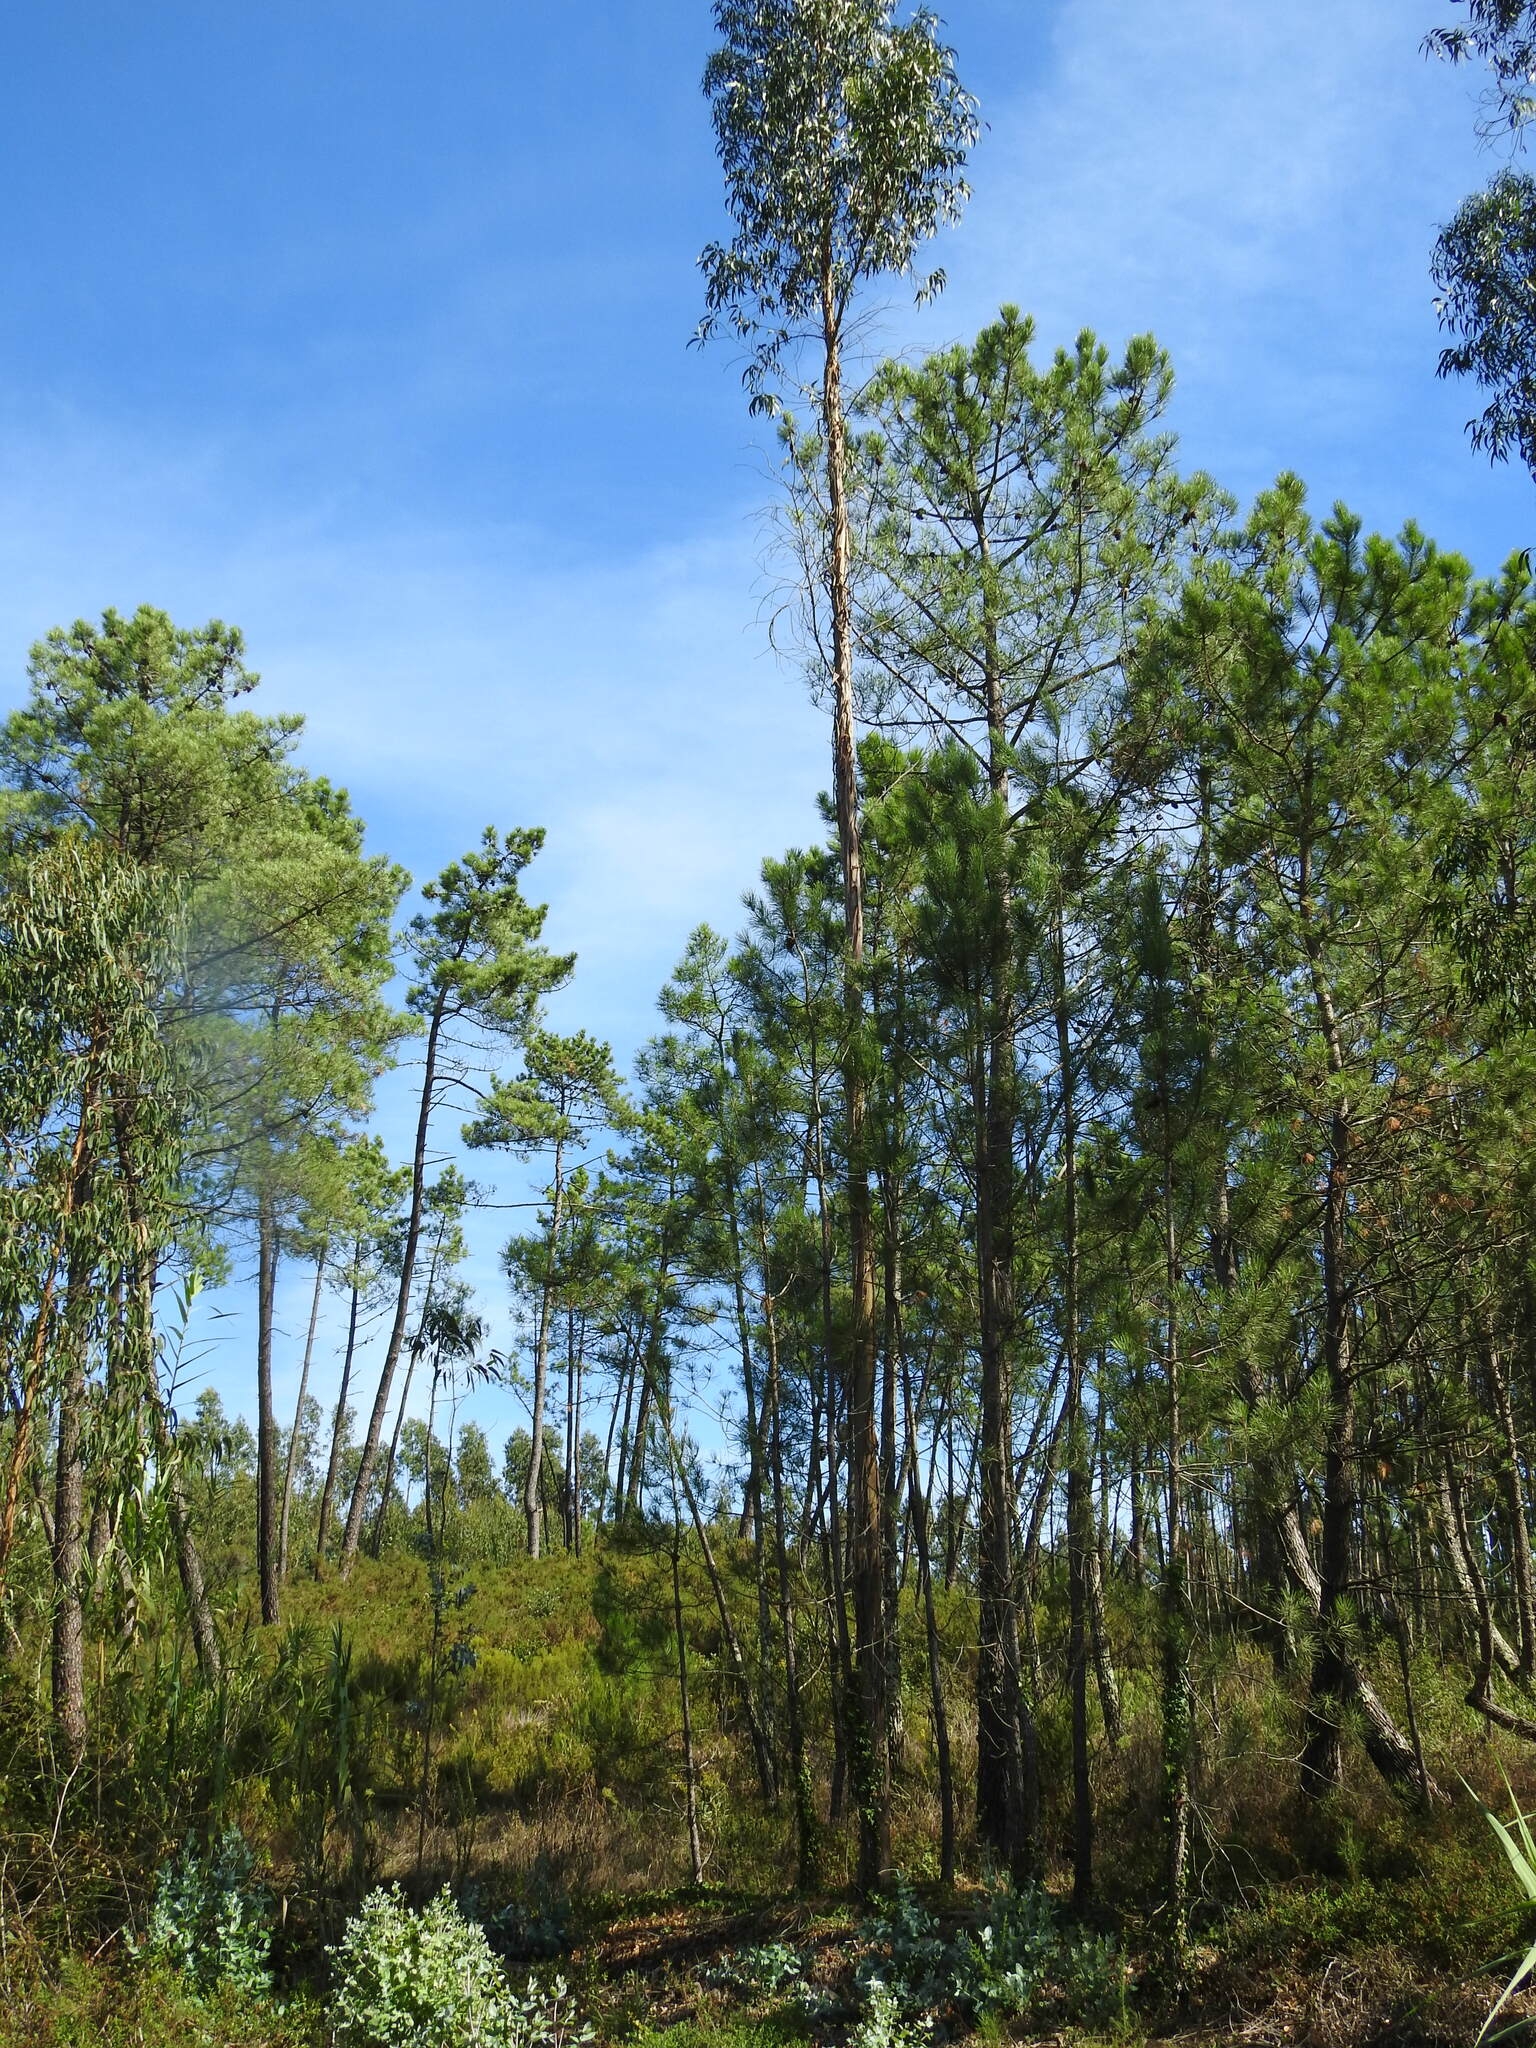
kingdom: Plantae
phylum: Tracheophyta
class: Pinopsida
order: Pinales
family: Pinaceae
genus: Pinus
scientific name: Pinus pinaster
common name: Maritime pine
